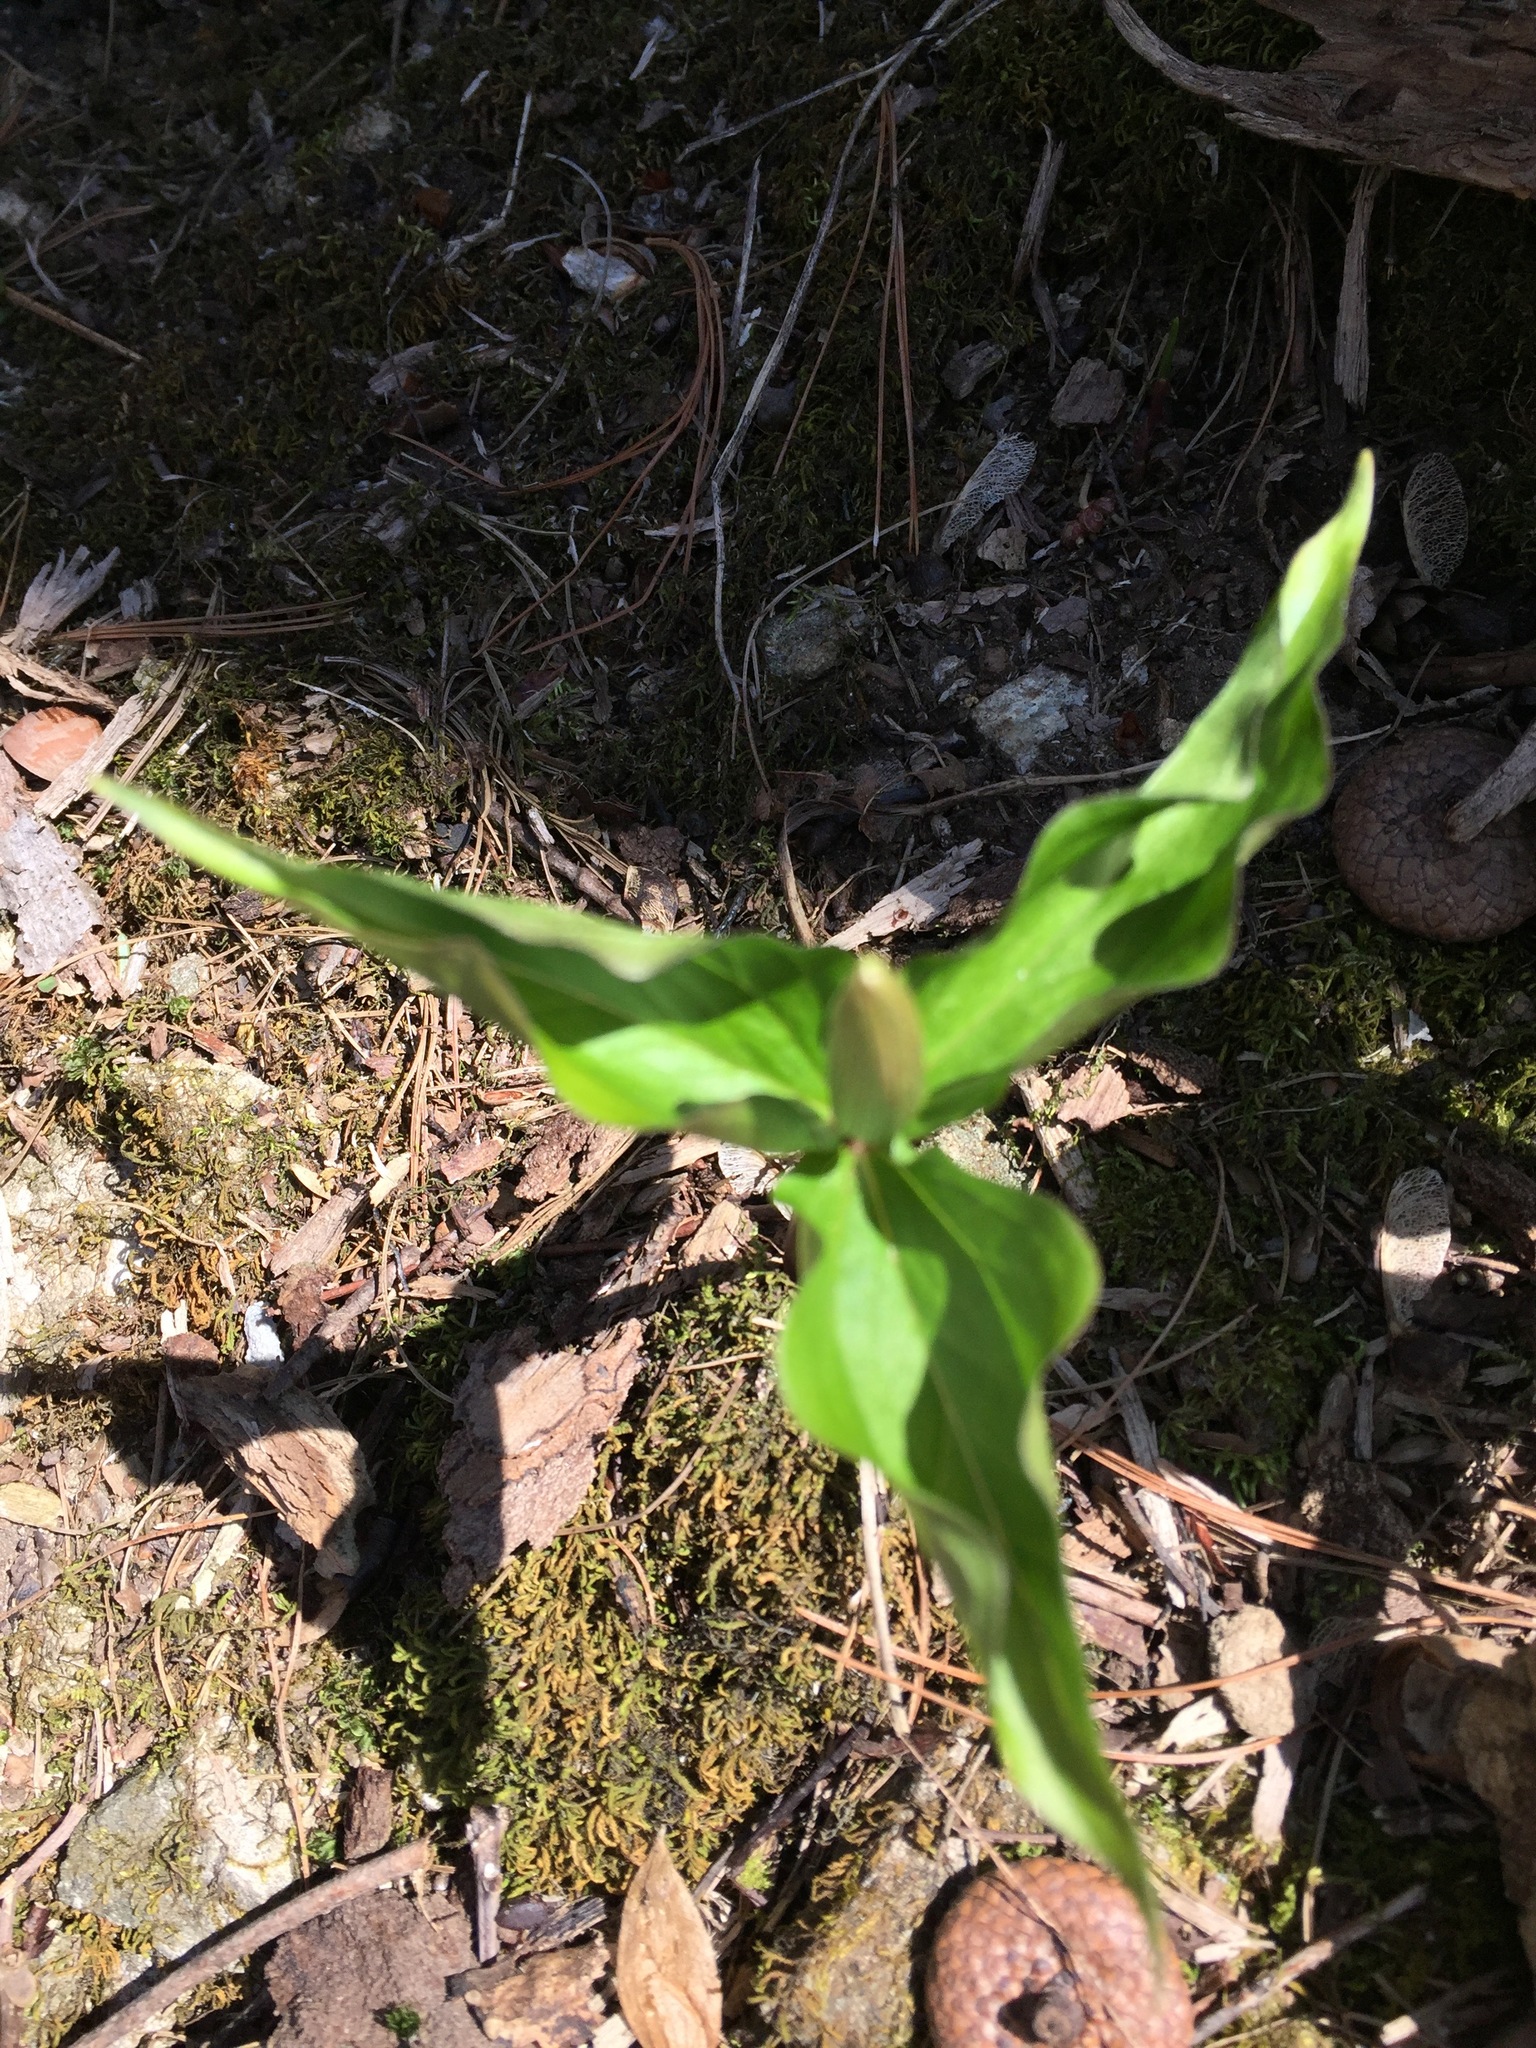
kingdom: Plantae
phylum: Tracheophyta
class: Liliopsida
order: Liliales
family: Melanthiaceae
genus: Trillium
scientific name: Trillium grandiflorum
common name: Great white trillium
